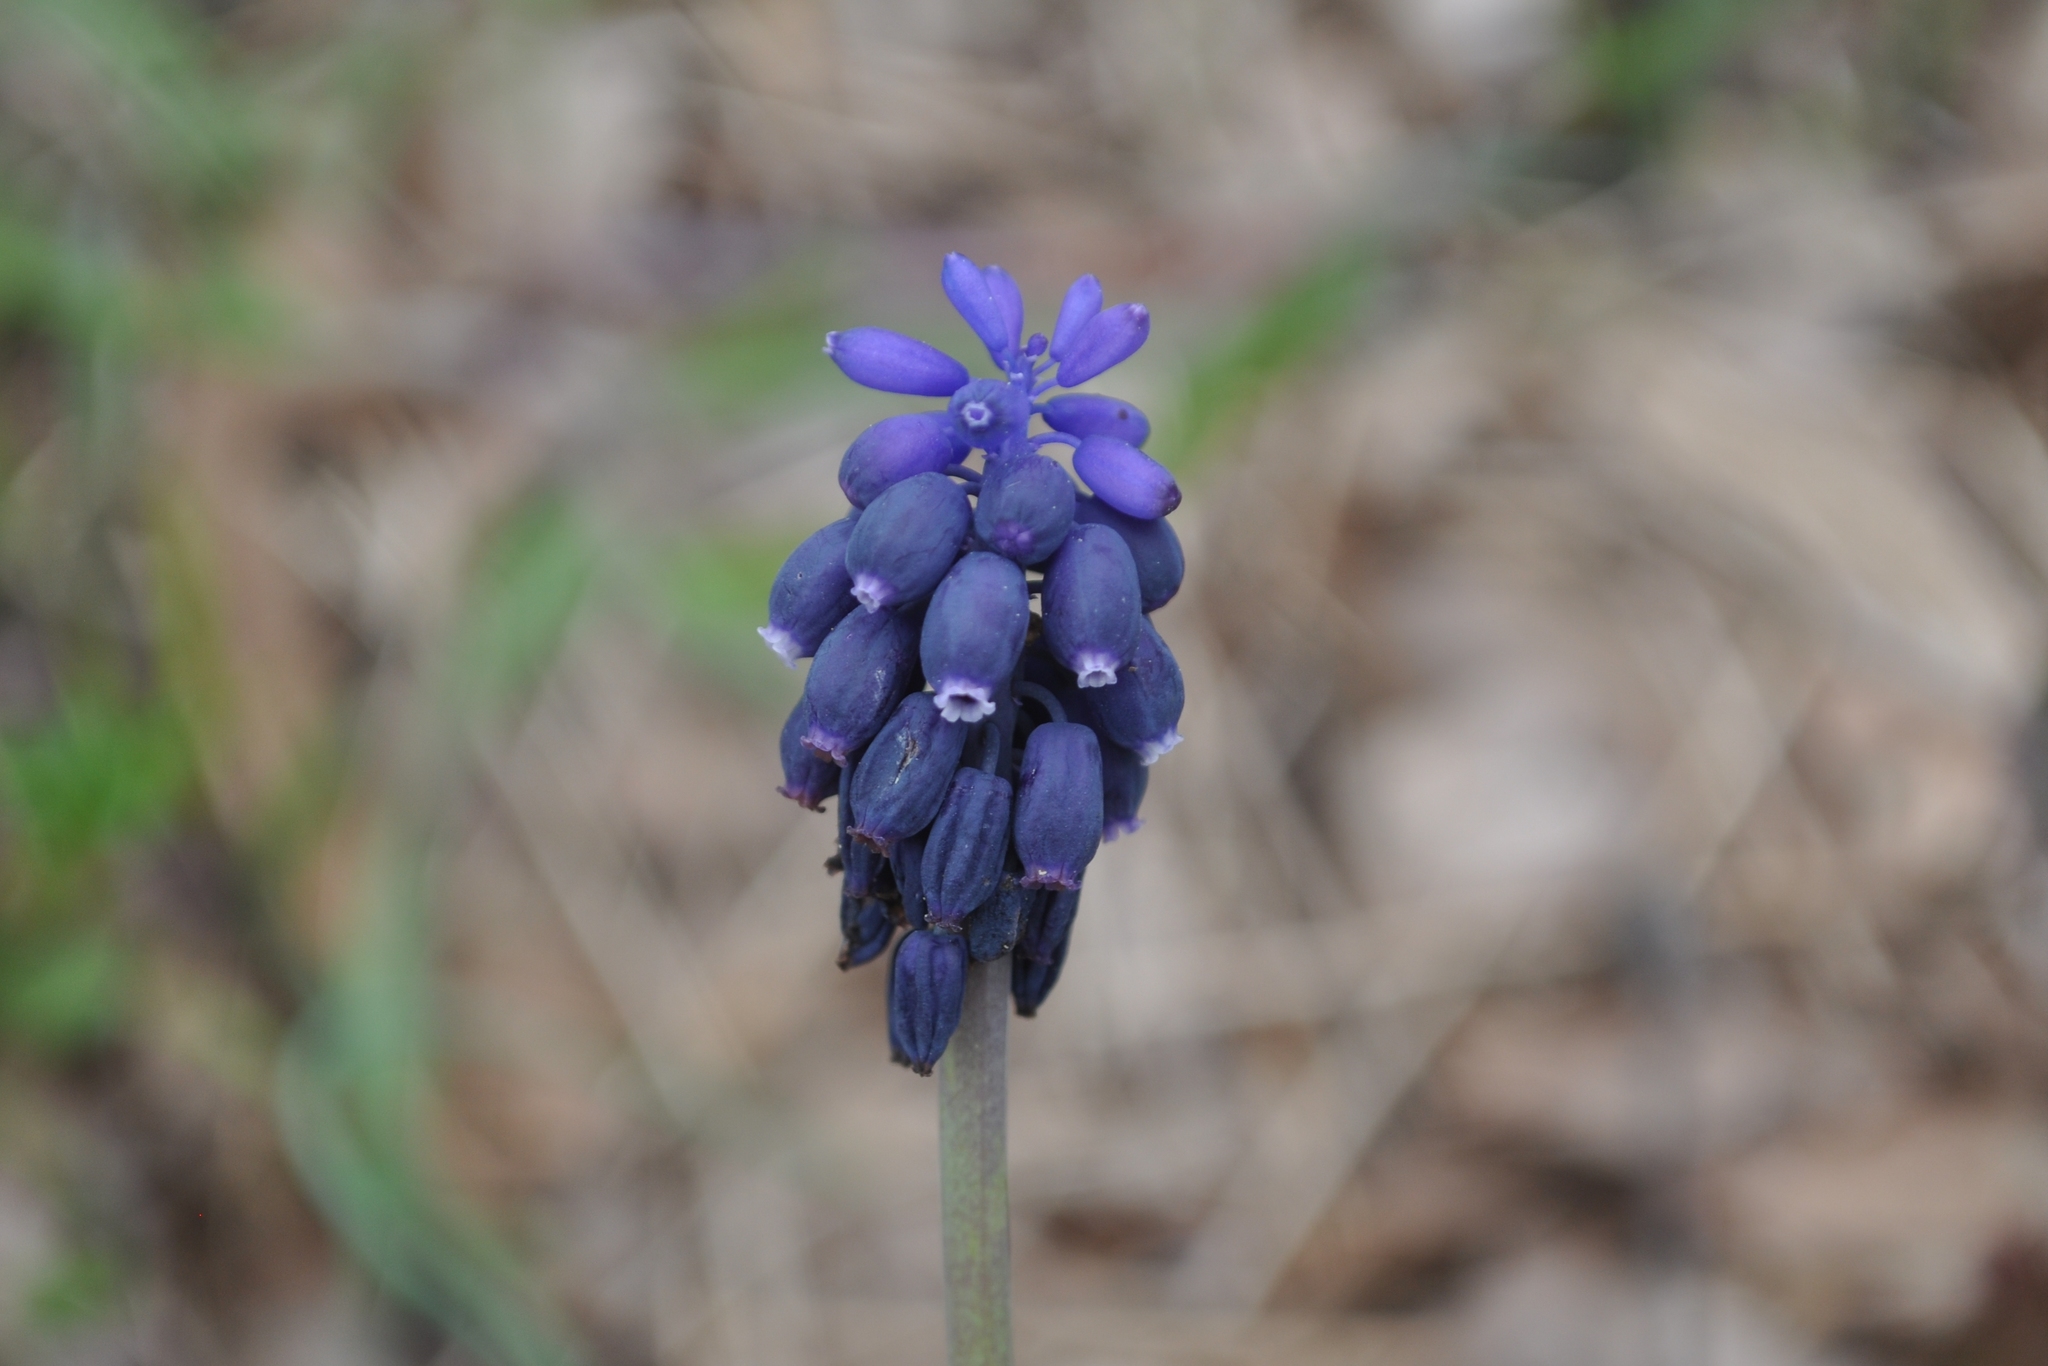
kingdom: Plantae
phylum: Tracheophyta
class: Liliopsida
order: Asparagales
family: Asparagaceae
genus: Muscari
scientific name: Muscari neglectum
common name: Grape-hyacinth
